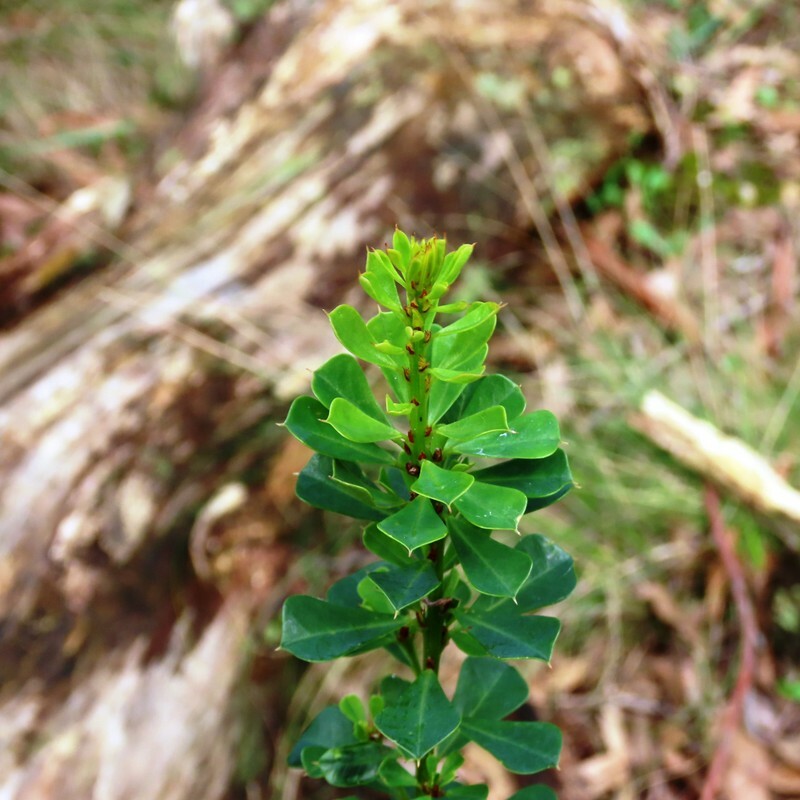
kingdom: Plantae
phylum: Tracheophyta
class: Magnoliopsida
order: Fabales
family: Fabaceae
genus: Pultenaea
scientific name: Pultenaea daphnoides
